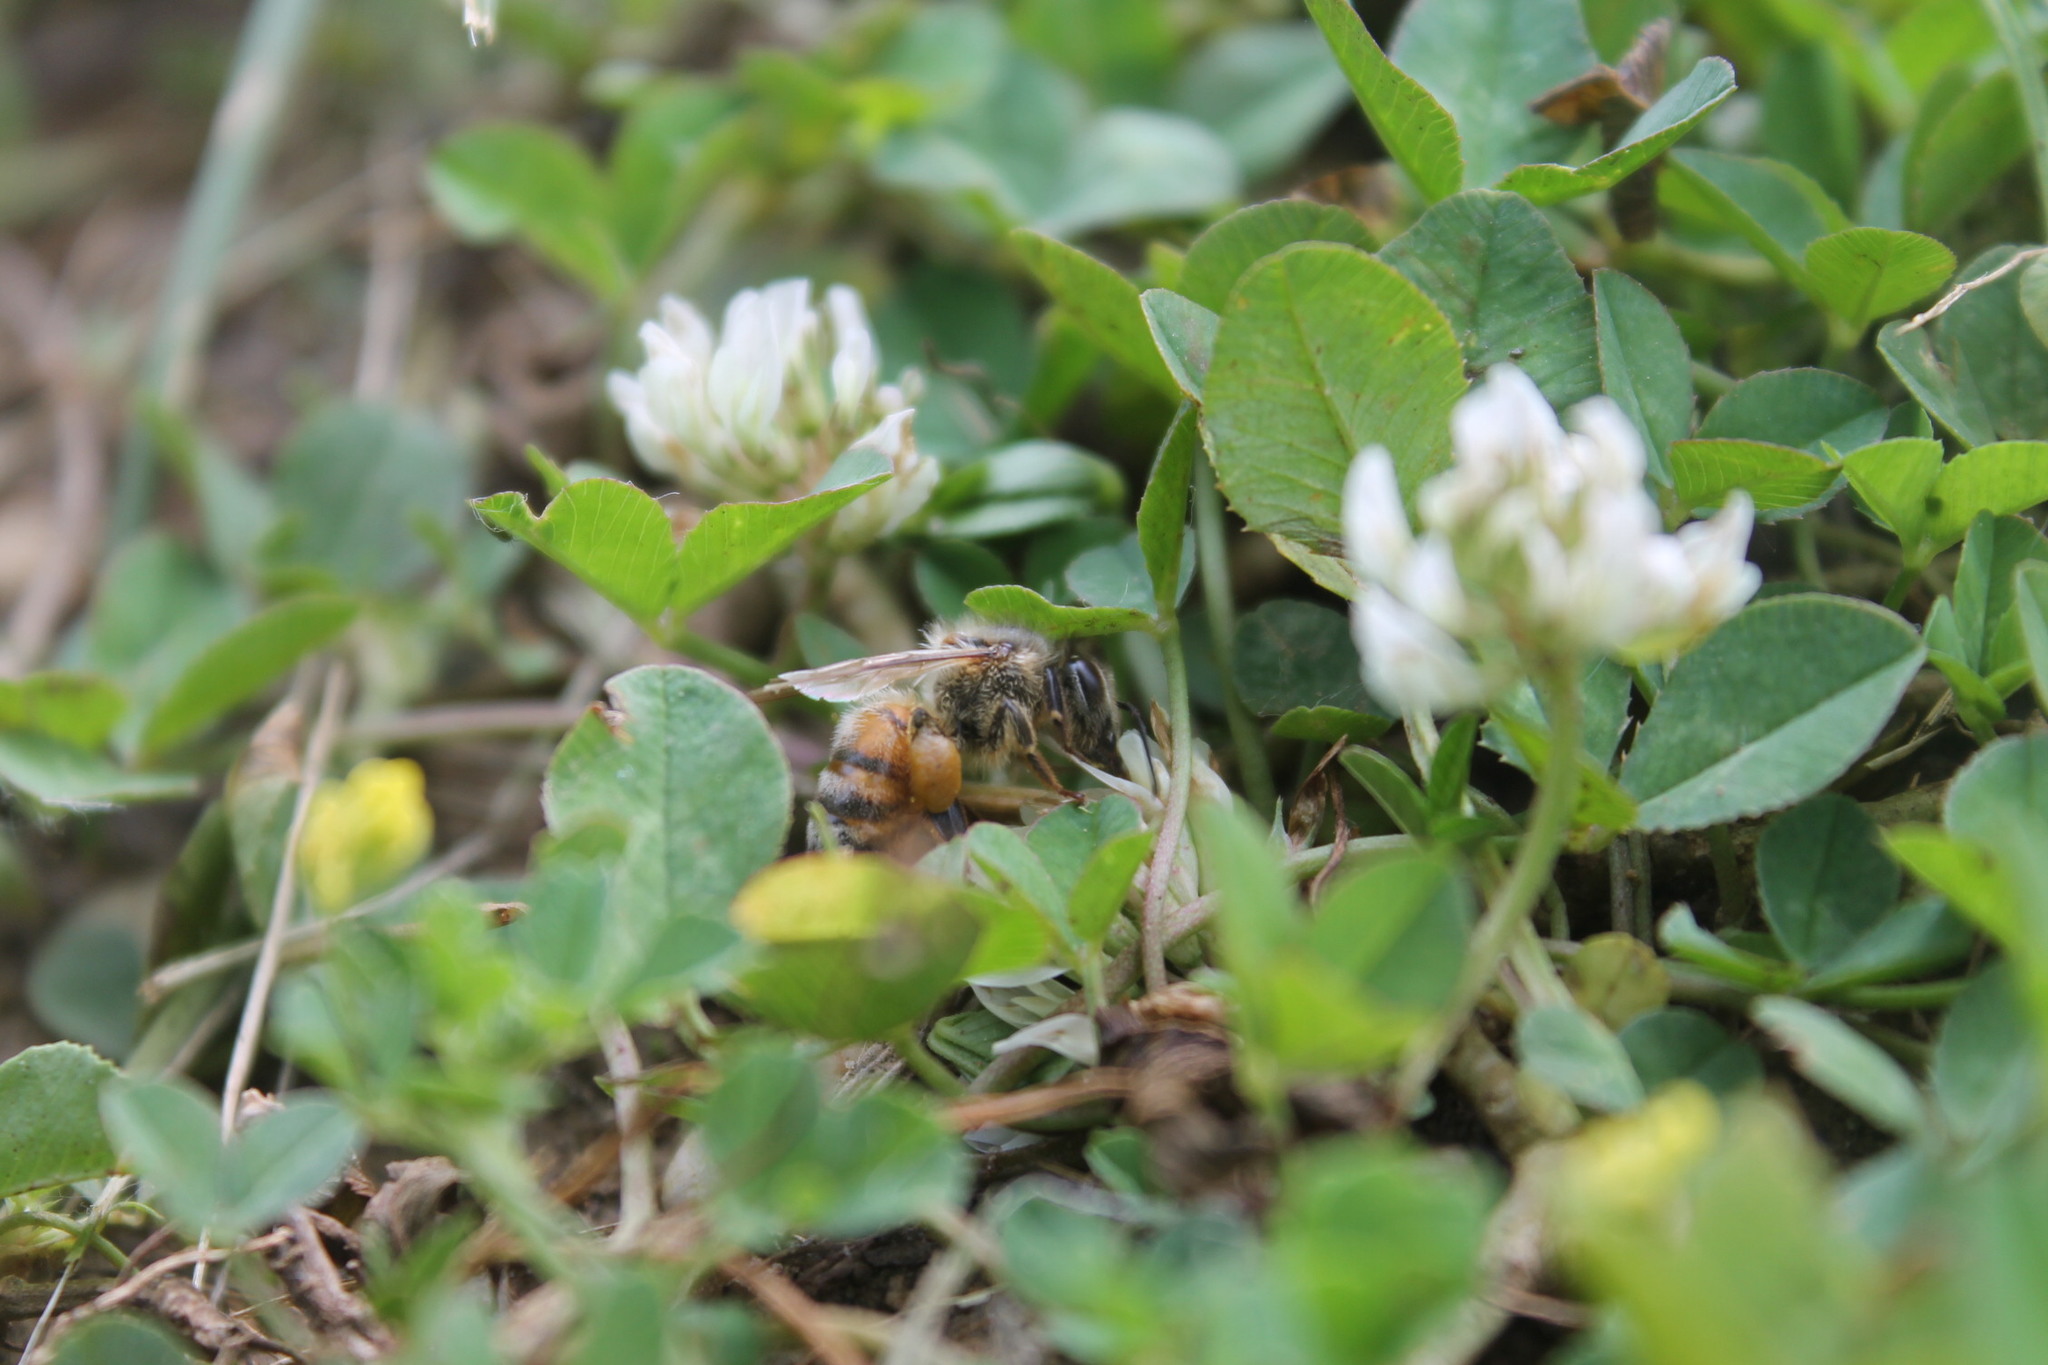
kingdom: Animalia
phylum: Arthropoda
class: Insecta
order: Hymenoptera
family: Apidae
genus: Apis
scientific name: Apis mellifera
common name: Honey bee
